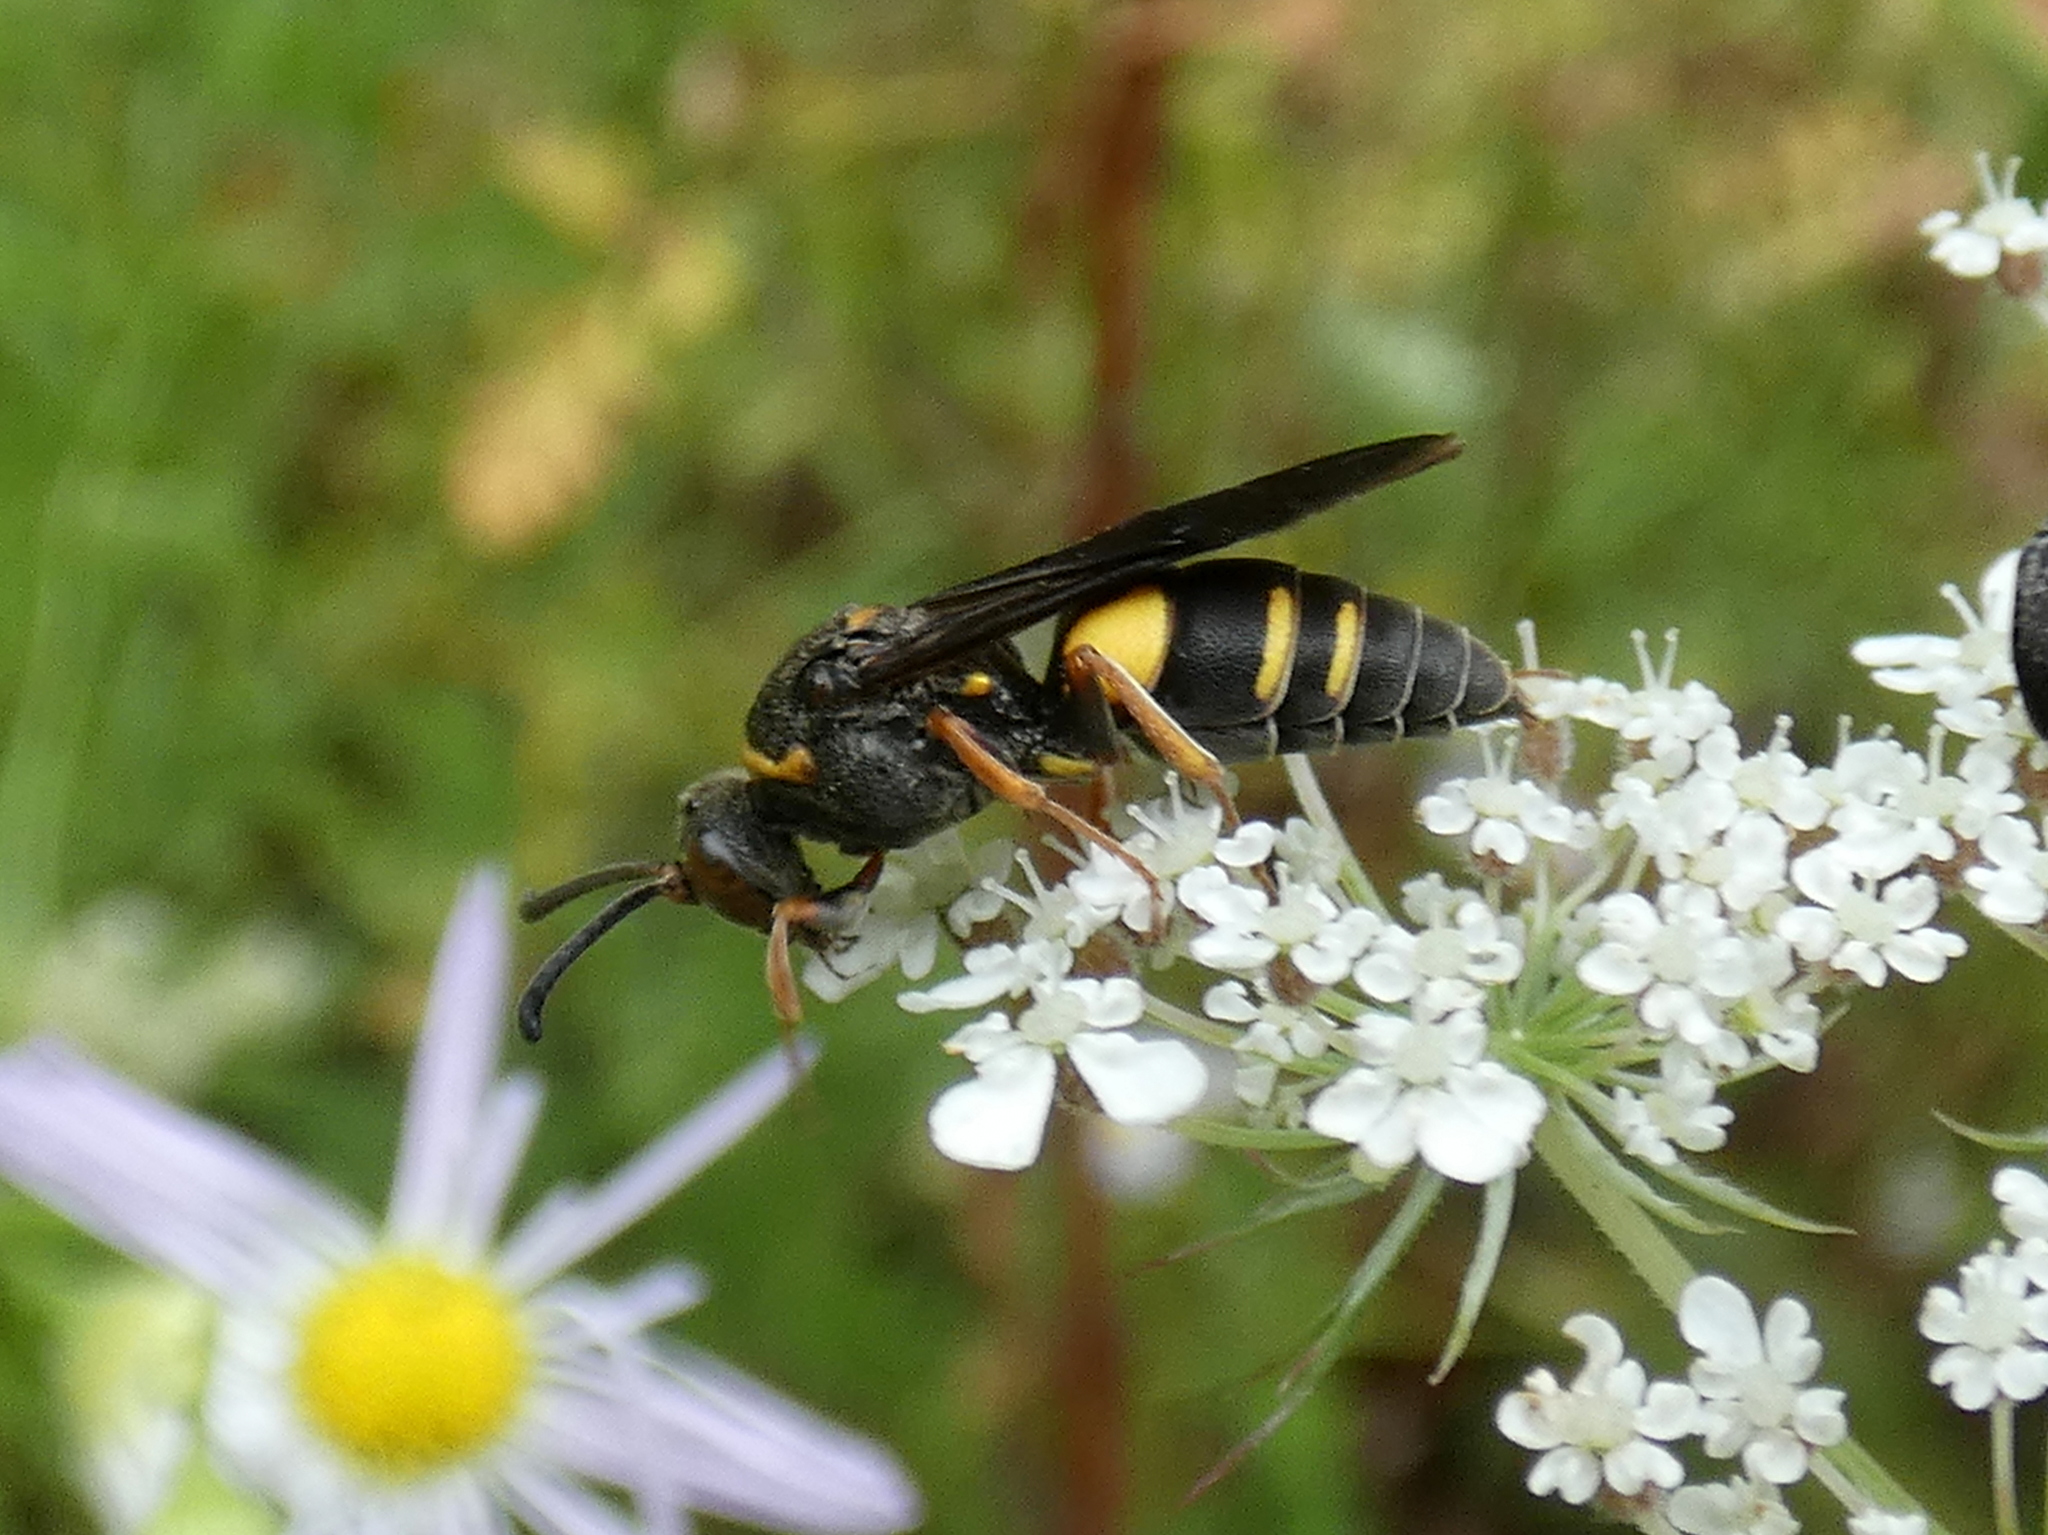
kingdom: Animalia
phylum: Arthropoda
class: Insecta
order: Hymenoptera
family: Crabronidae
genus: Nysson
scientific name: Nysson plagiatus
